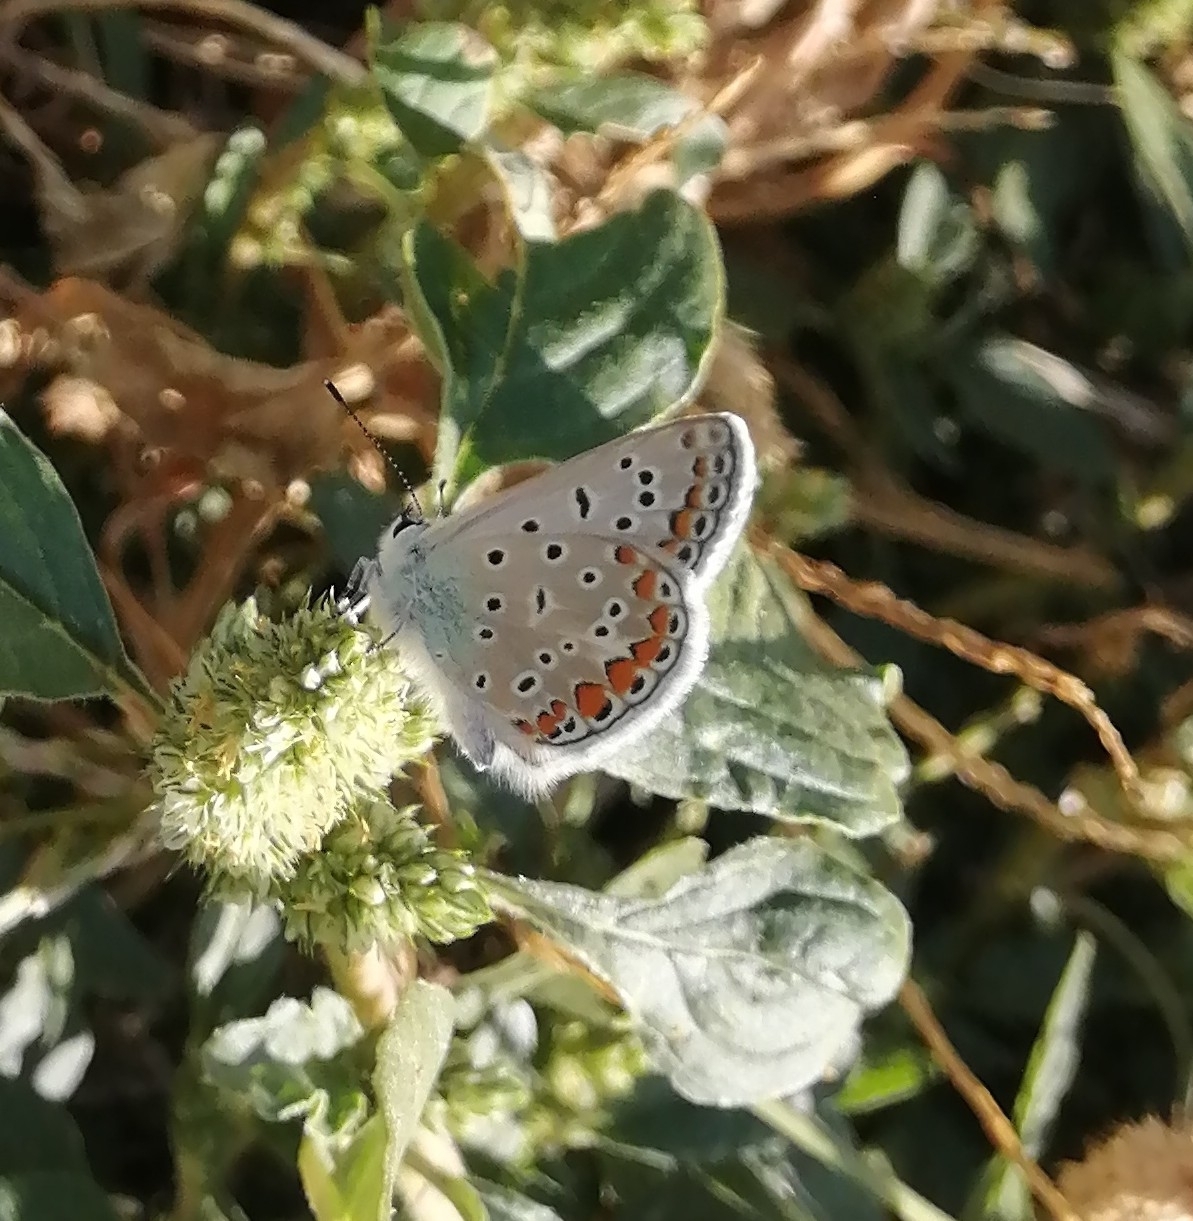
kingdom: Animalia
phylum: Arthropoda
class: Insecta
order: Lepidoptera
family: Lycaenidae
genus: Polyommatus
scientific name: Polyommatus icarus
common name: Common blue
